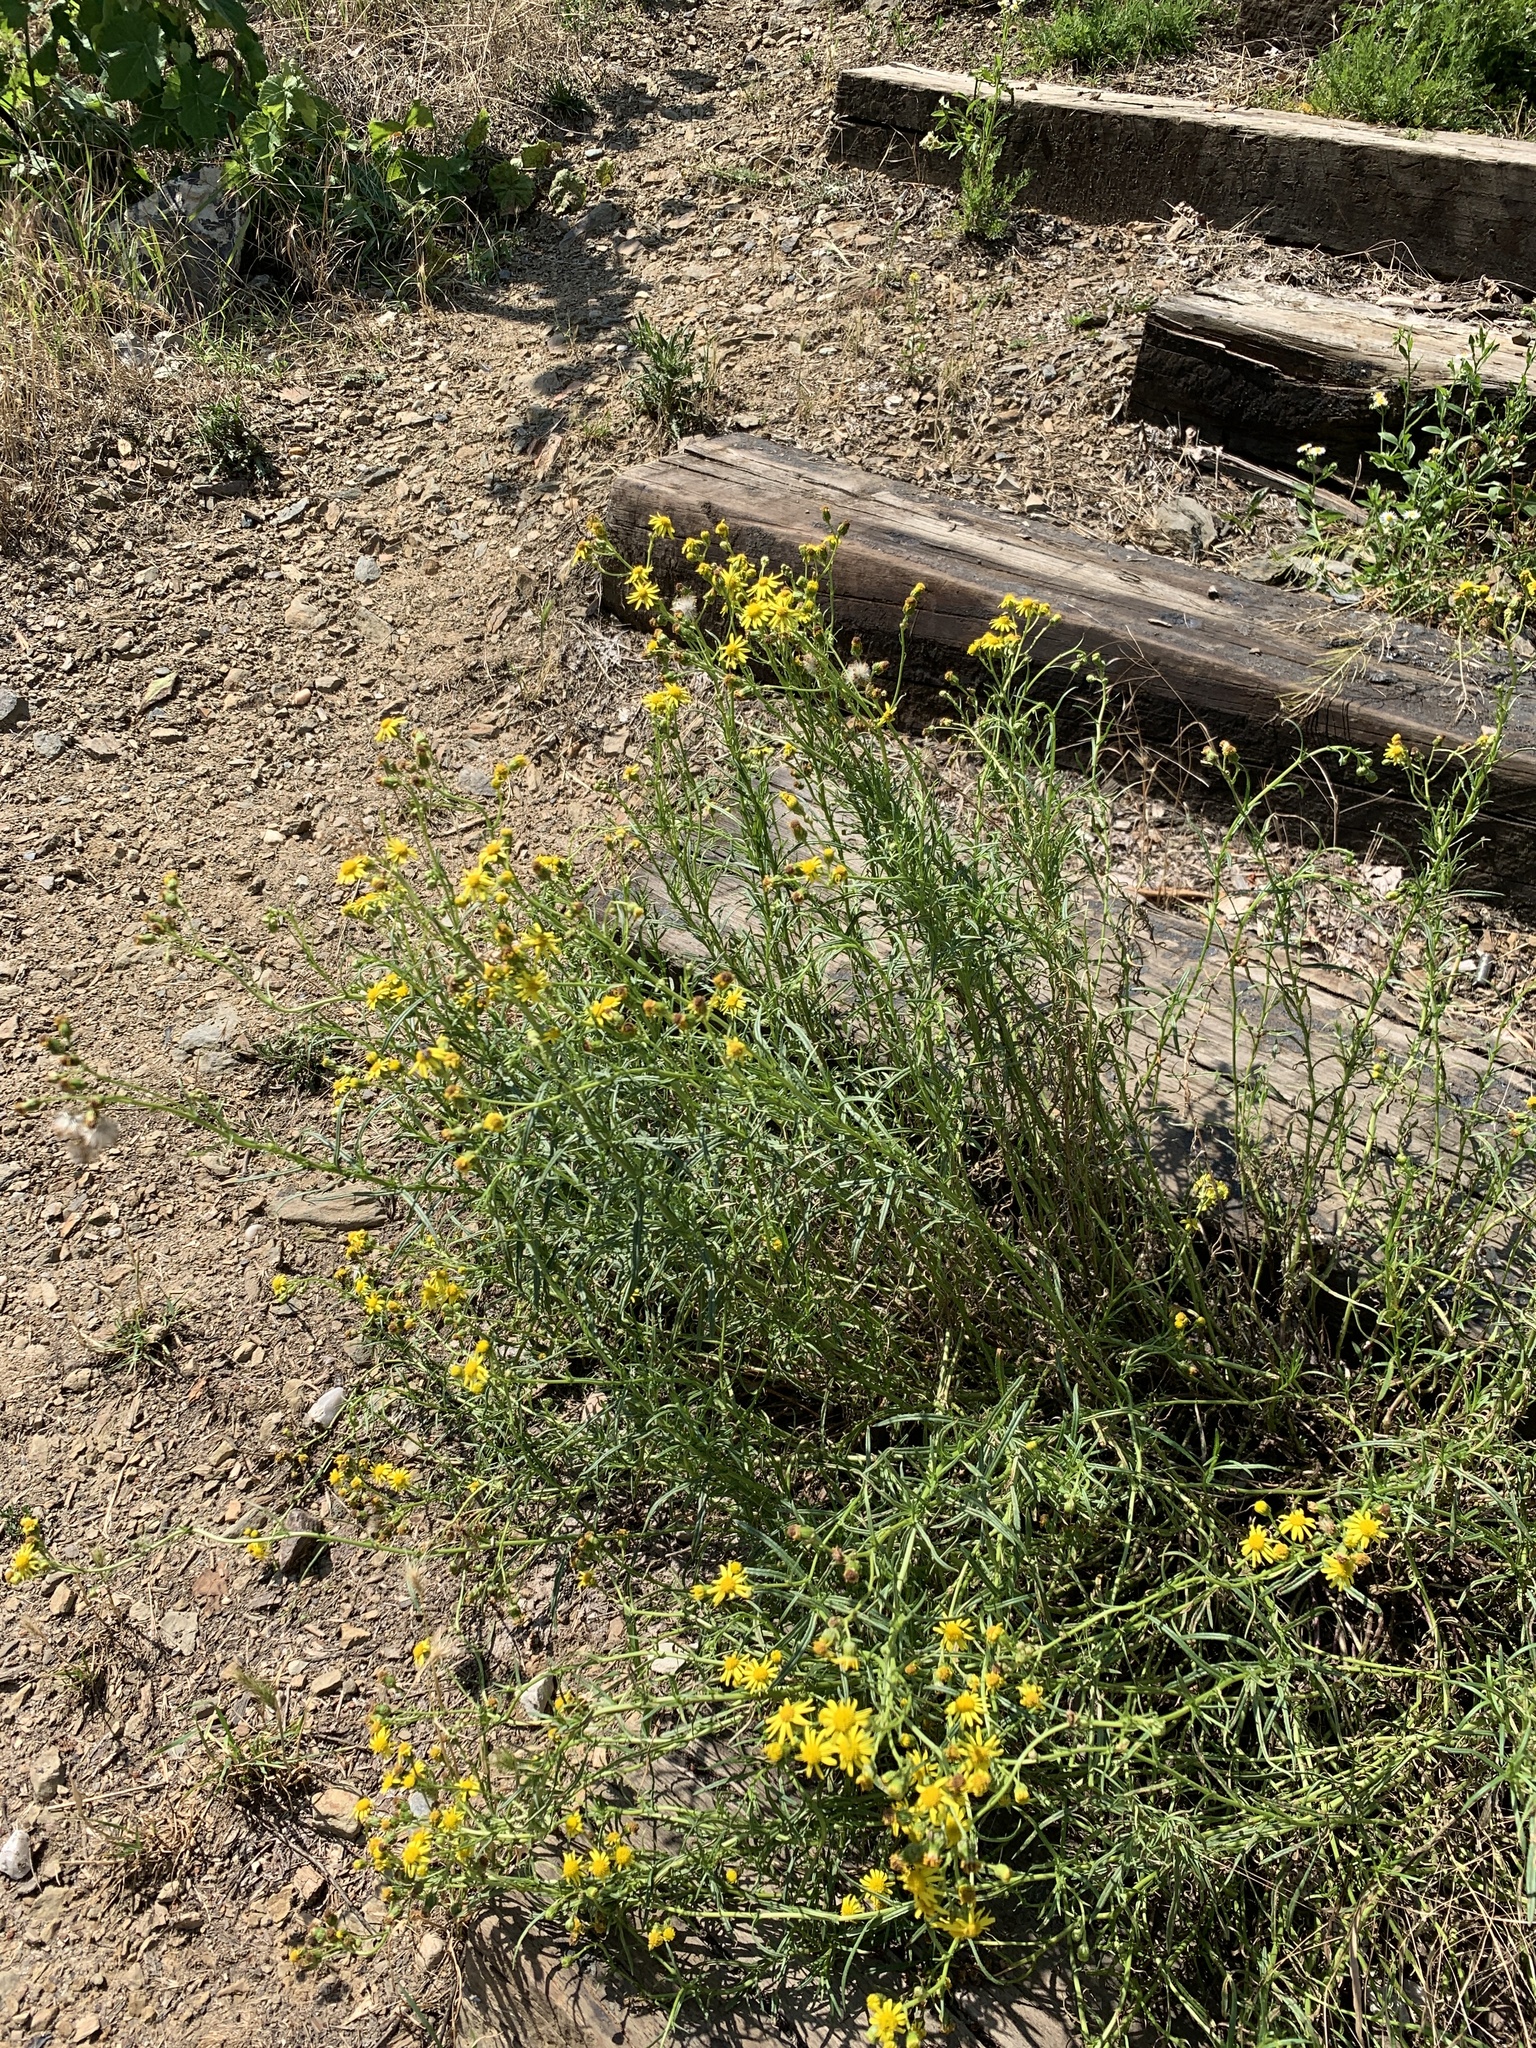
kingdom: Plantae
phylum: Tracheophyta
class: Magnoliopsida
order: Asterales
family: Asteraceae
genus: Senecio
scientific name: Senecio inaequidens
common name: Narrow-leaved ragwort
